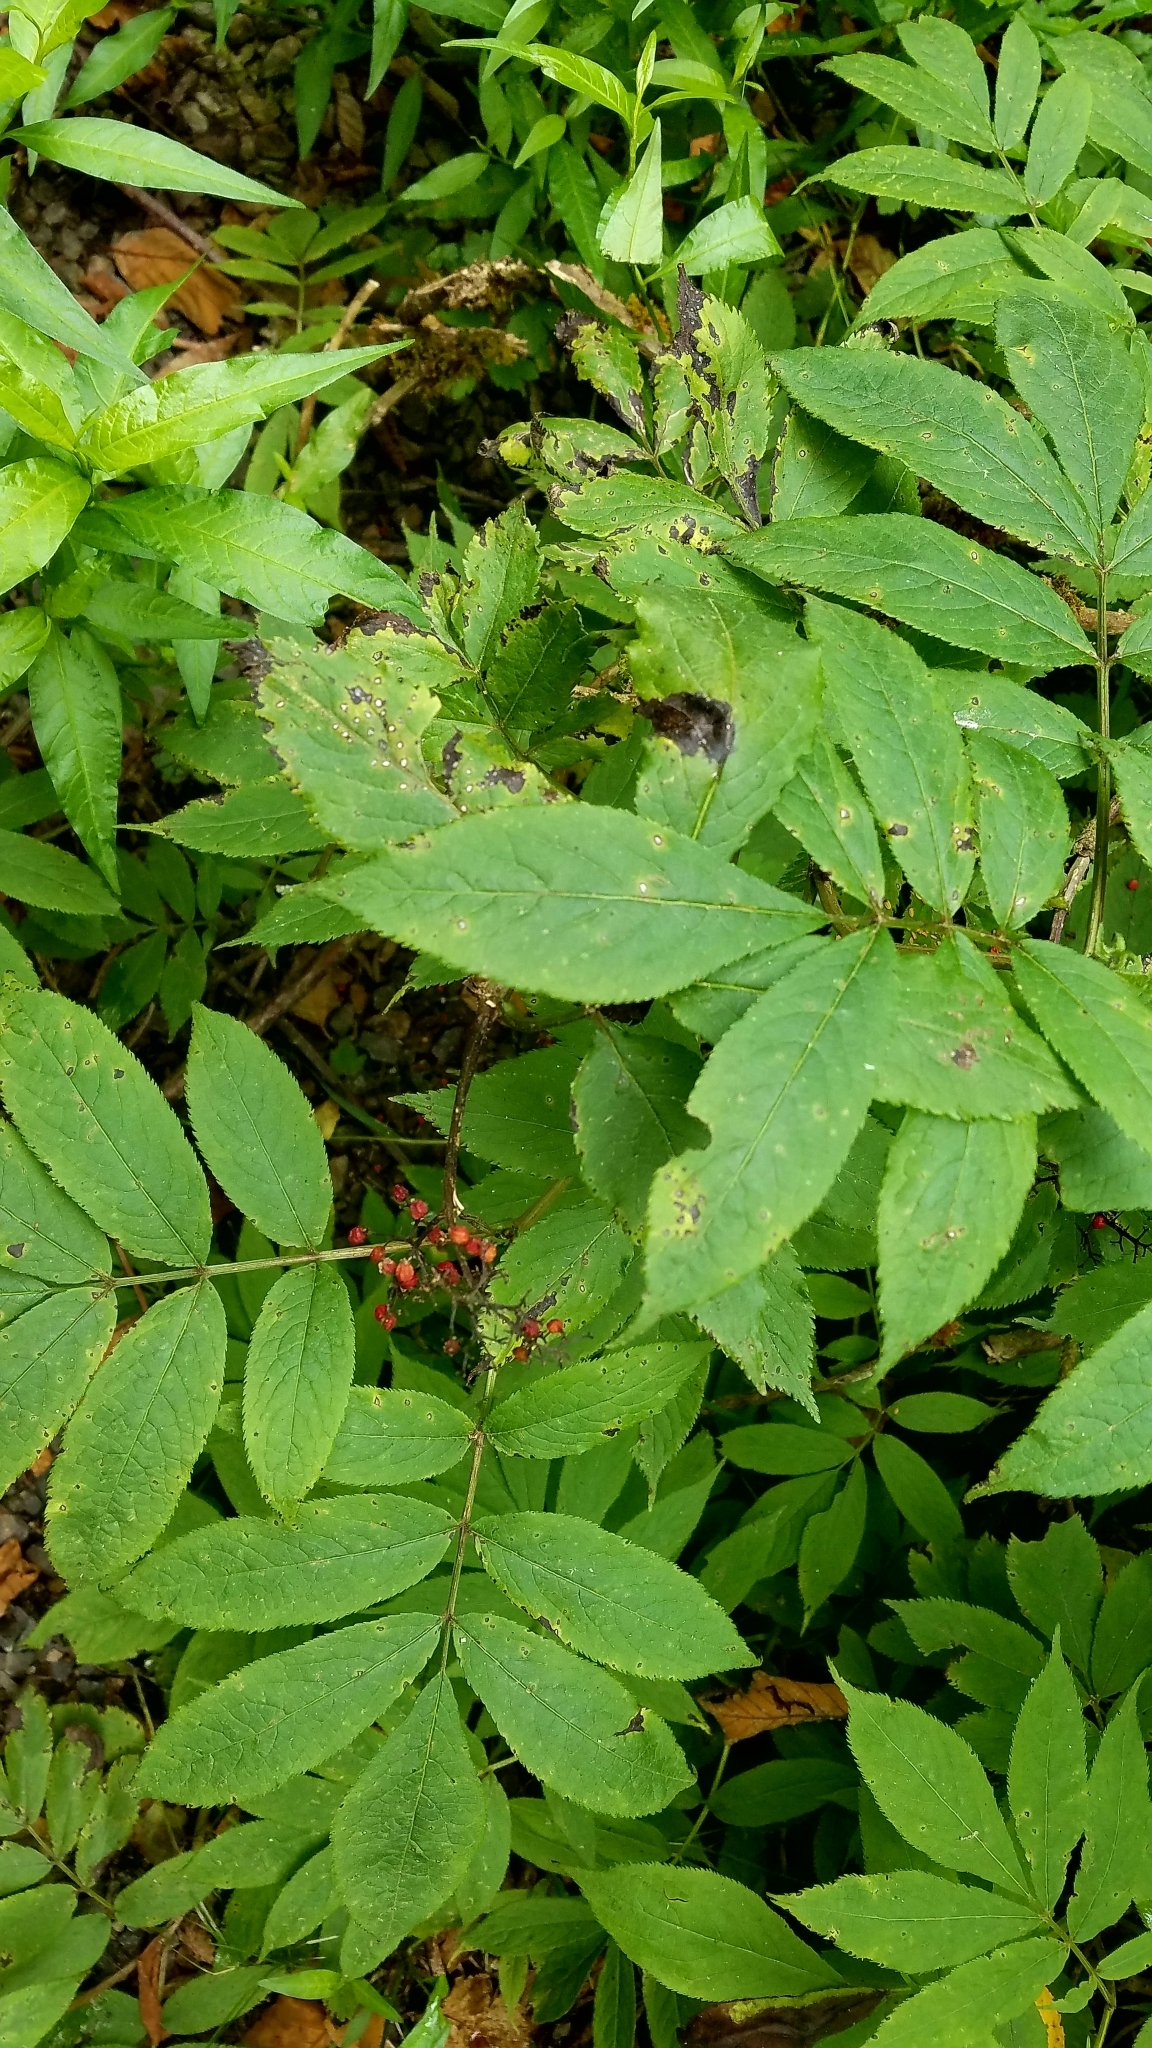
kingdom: Plantae
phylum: Tracheophyta
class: Magnoliopsida
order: Dipsacales
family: Viburnaceae
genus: Sambucus
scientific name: Sambucus racemosa
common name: Red-berried elder
